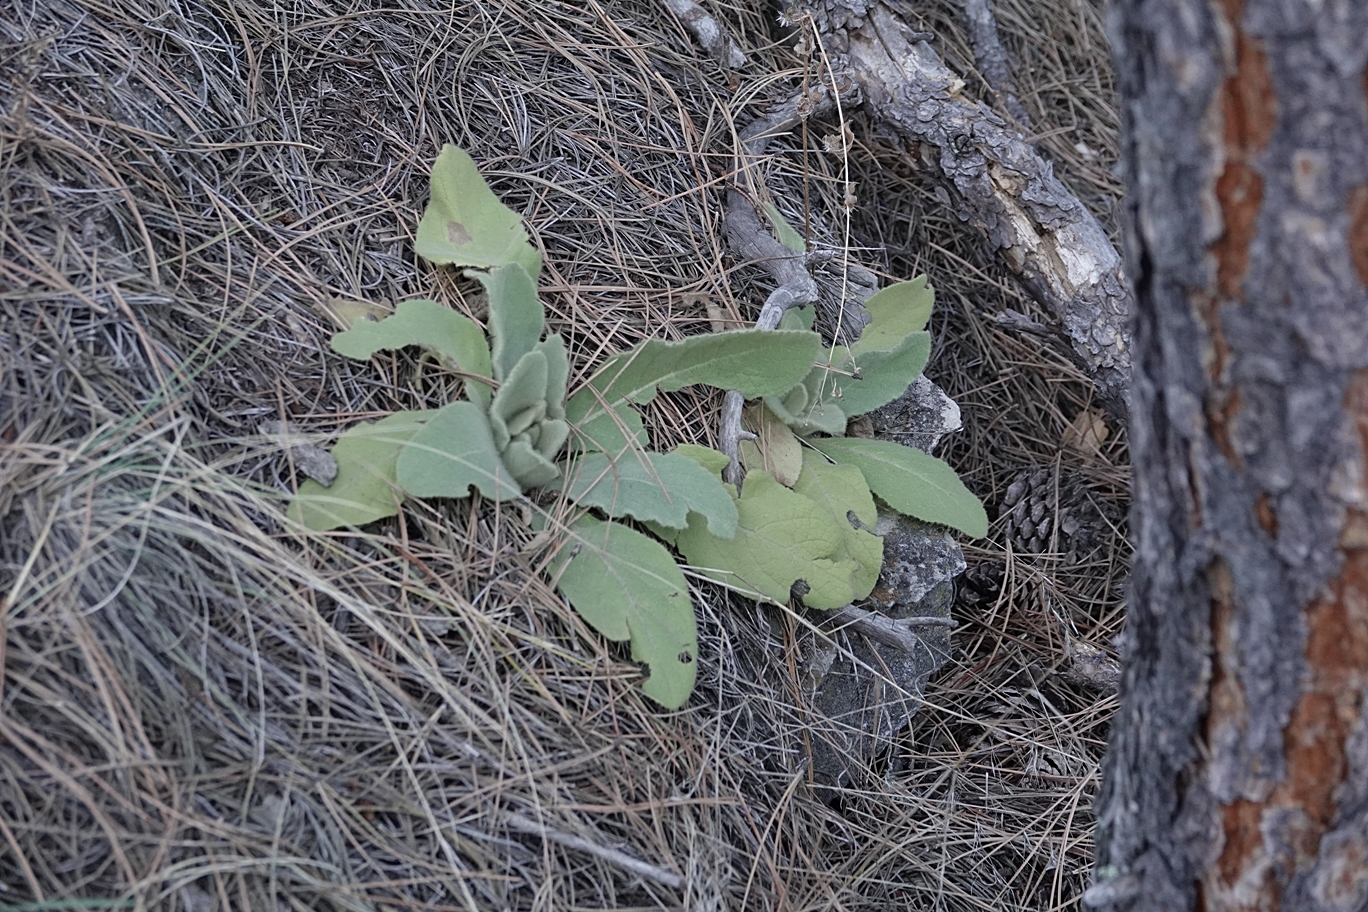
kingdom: Plantae
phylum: Tracheophyta
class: Magnoliopsida
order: Lamiales
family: Scrophulariaceae
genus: Verbascum
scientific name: Verbascum thapsus
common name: Common mullein
